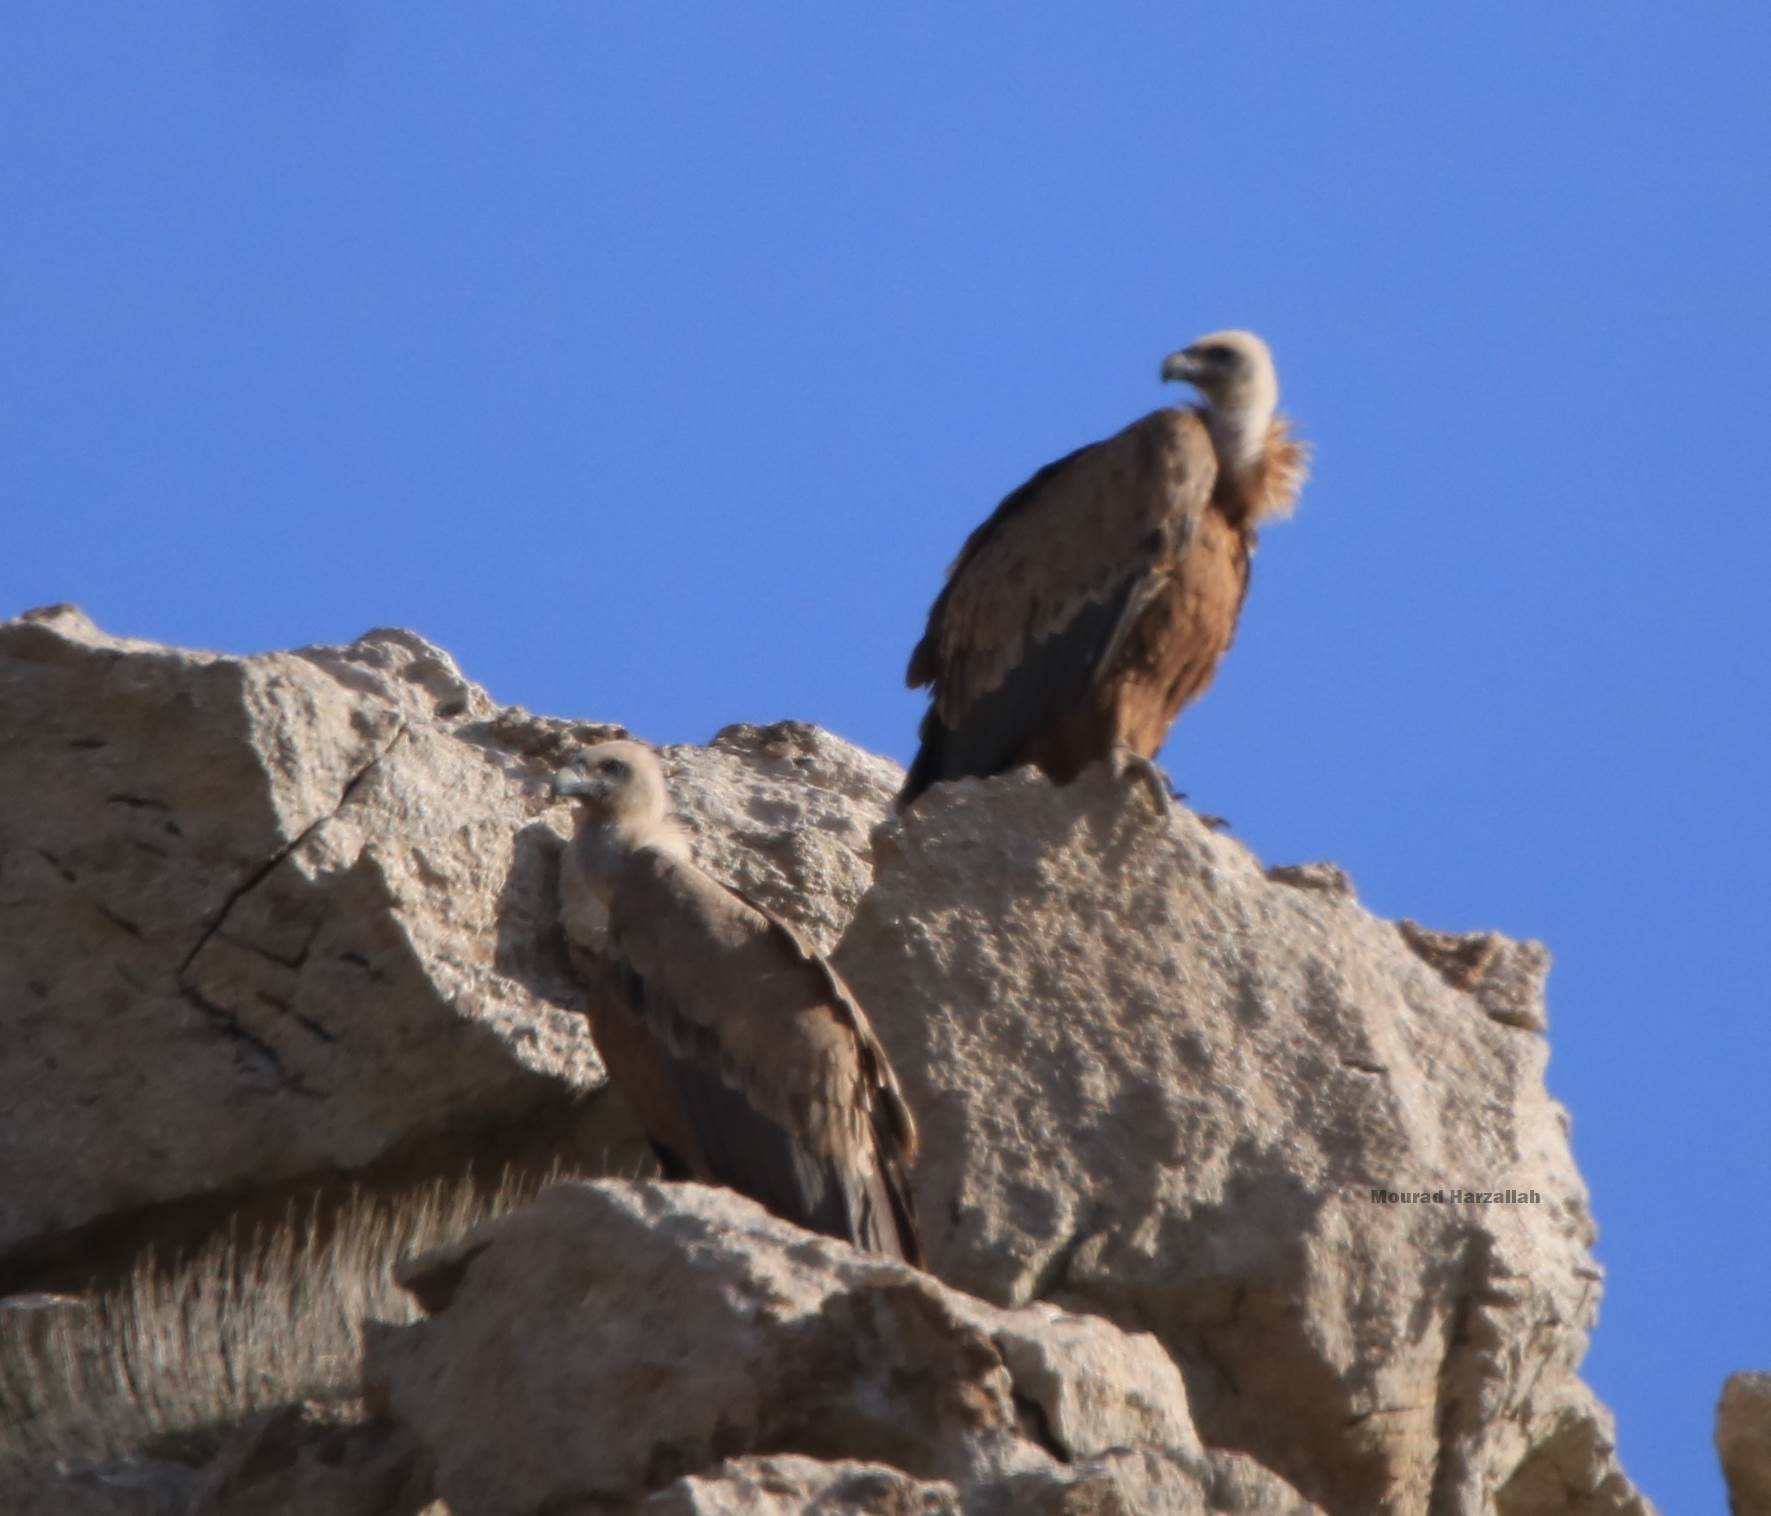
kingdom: Animalia
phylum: Chordata
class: Aves
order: Accipitriformes
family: Accipitridae
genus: Gyps
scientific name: Gyps fulvus
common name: Griffon vulture
